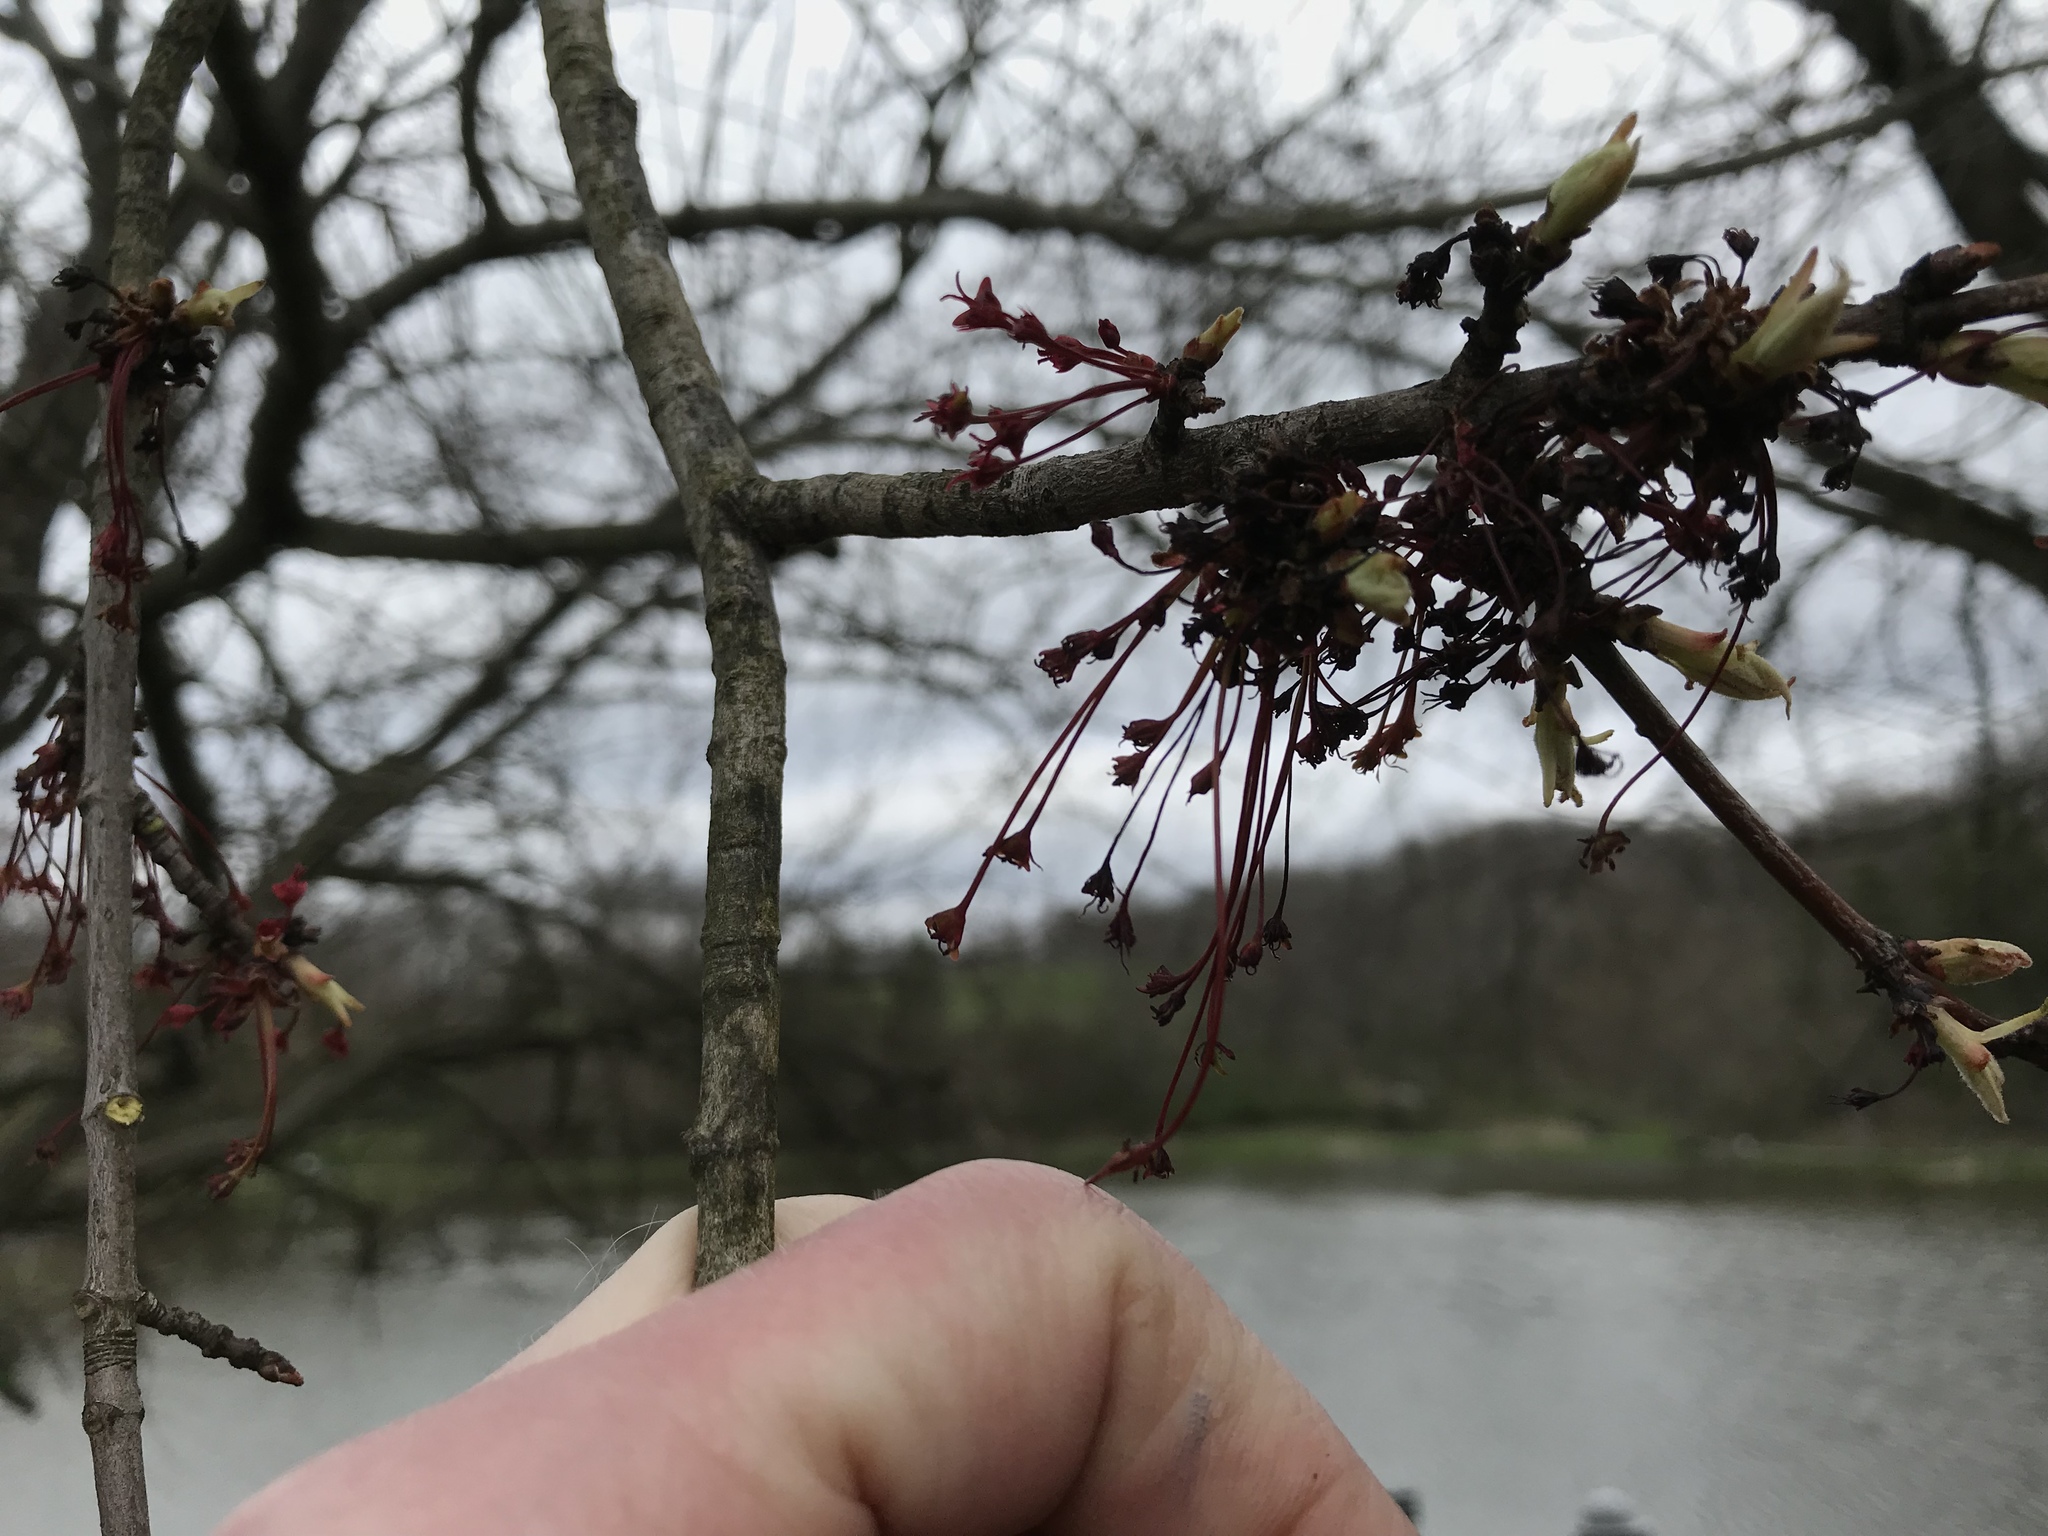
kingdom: Plantae
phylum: Tracheophyta
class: Magnoliopsida
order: Sapindales
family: Sapindaceae
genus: Acer
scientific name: Acer rubrum
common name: Red maple
